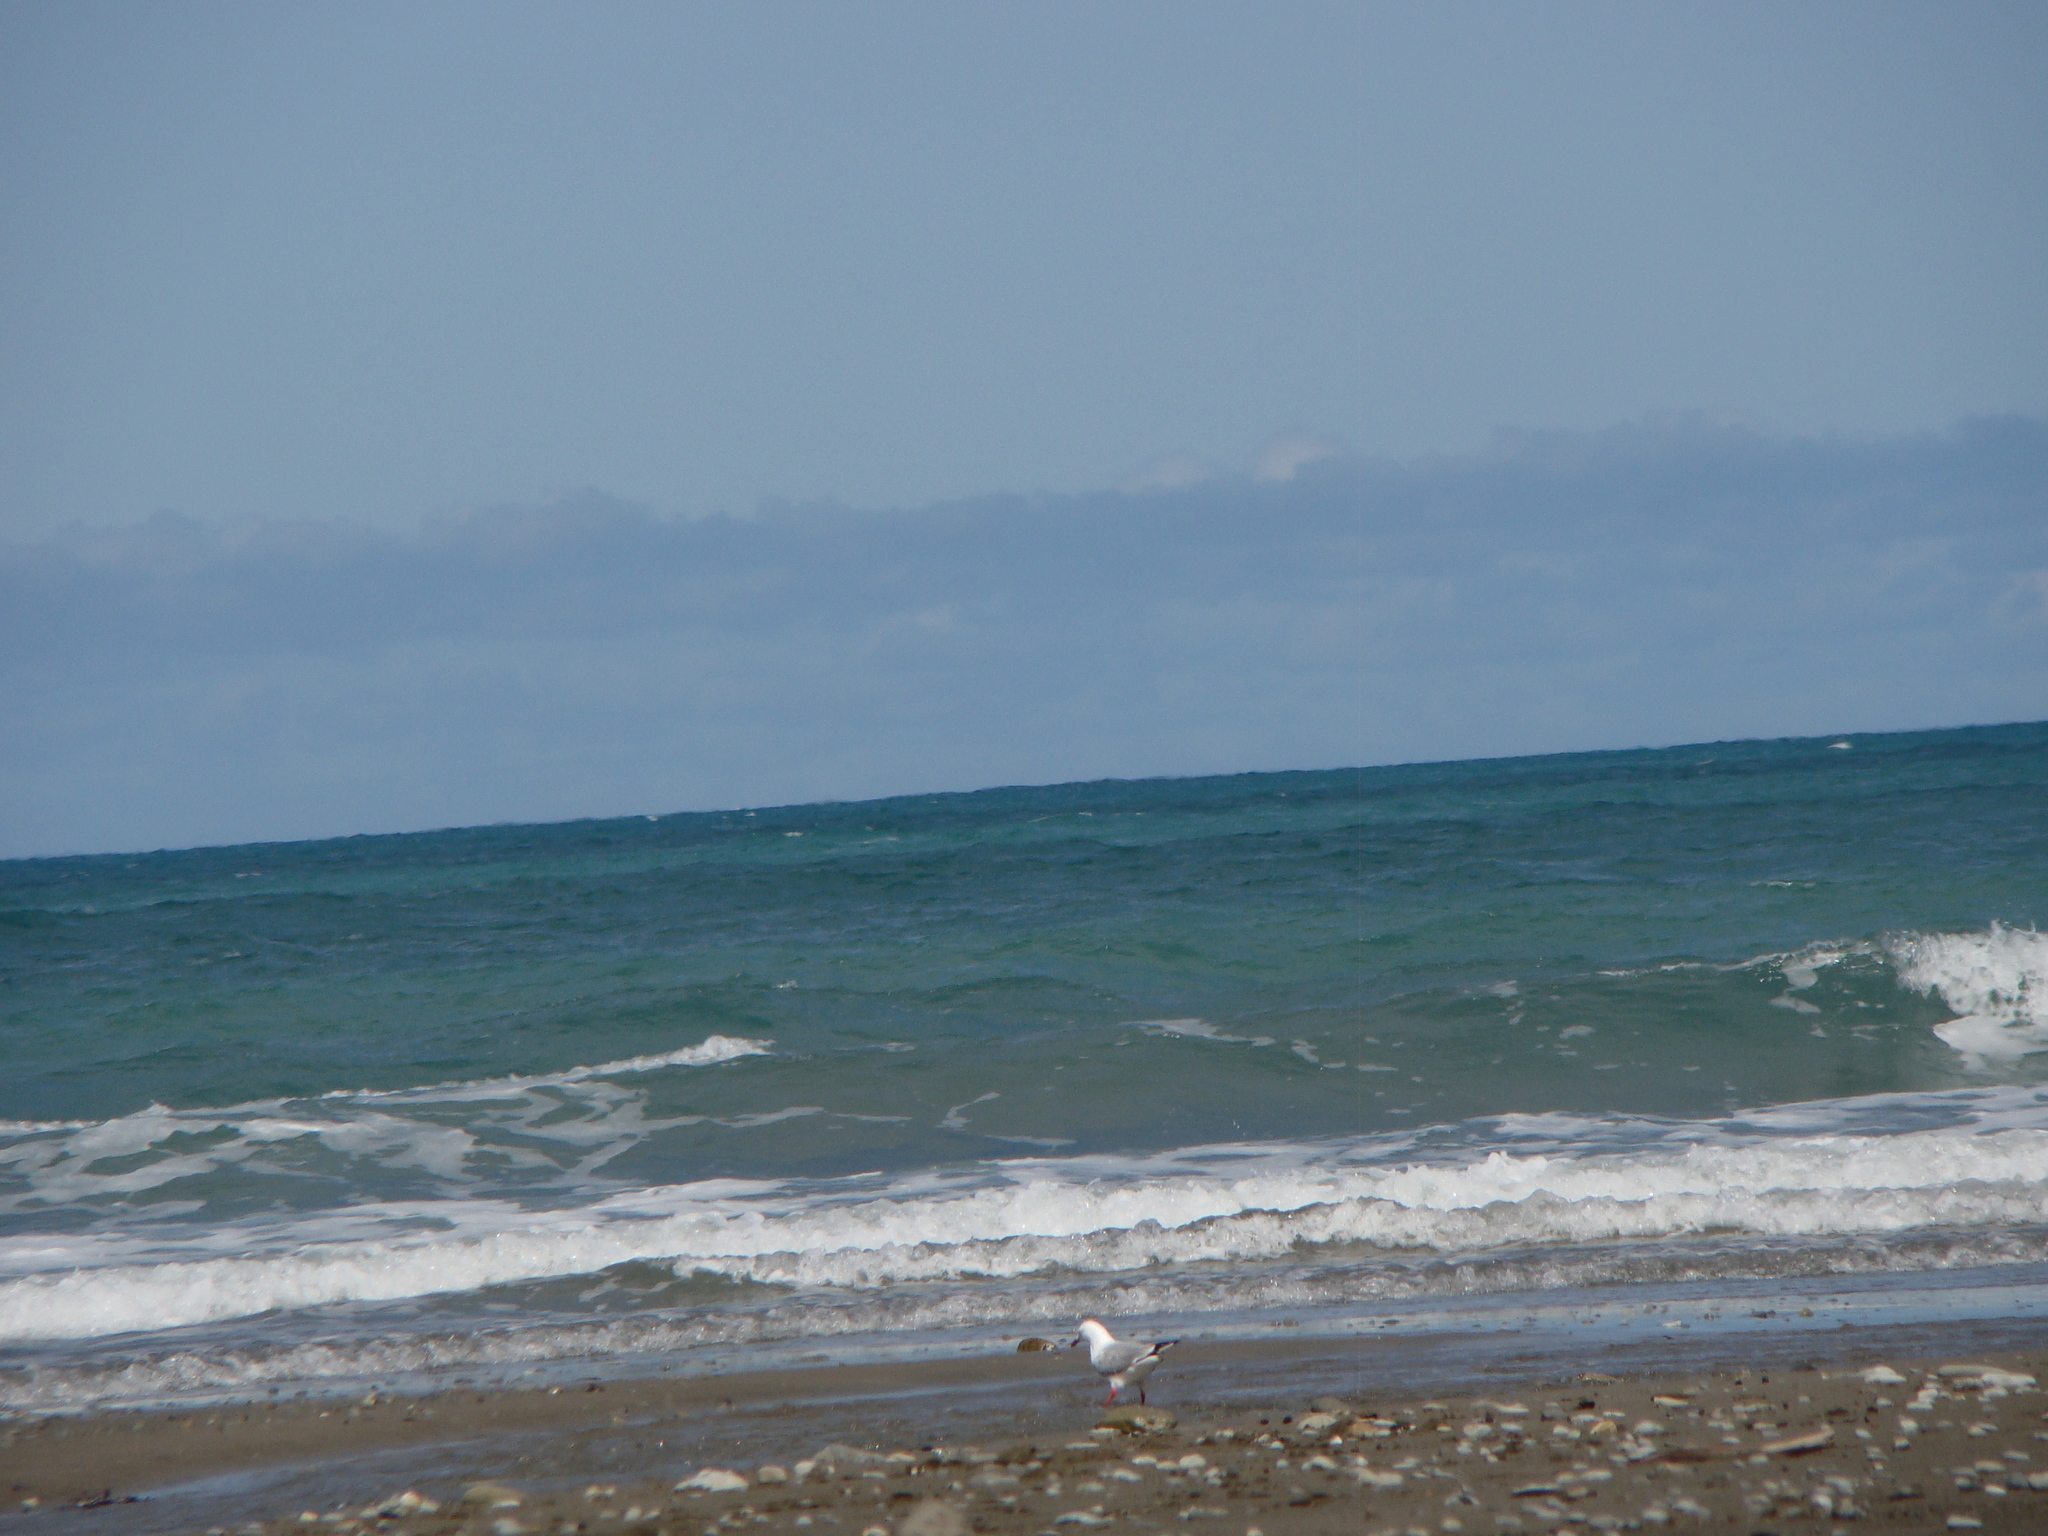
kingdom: Animalia
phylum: Chordata
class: Aves
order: Charadriiformes
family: Laridae
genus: Chroicocephalus
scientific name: Chroicocephalus novaehollandiae
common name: Silver gull
